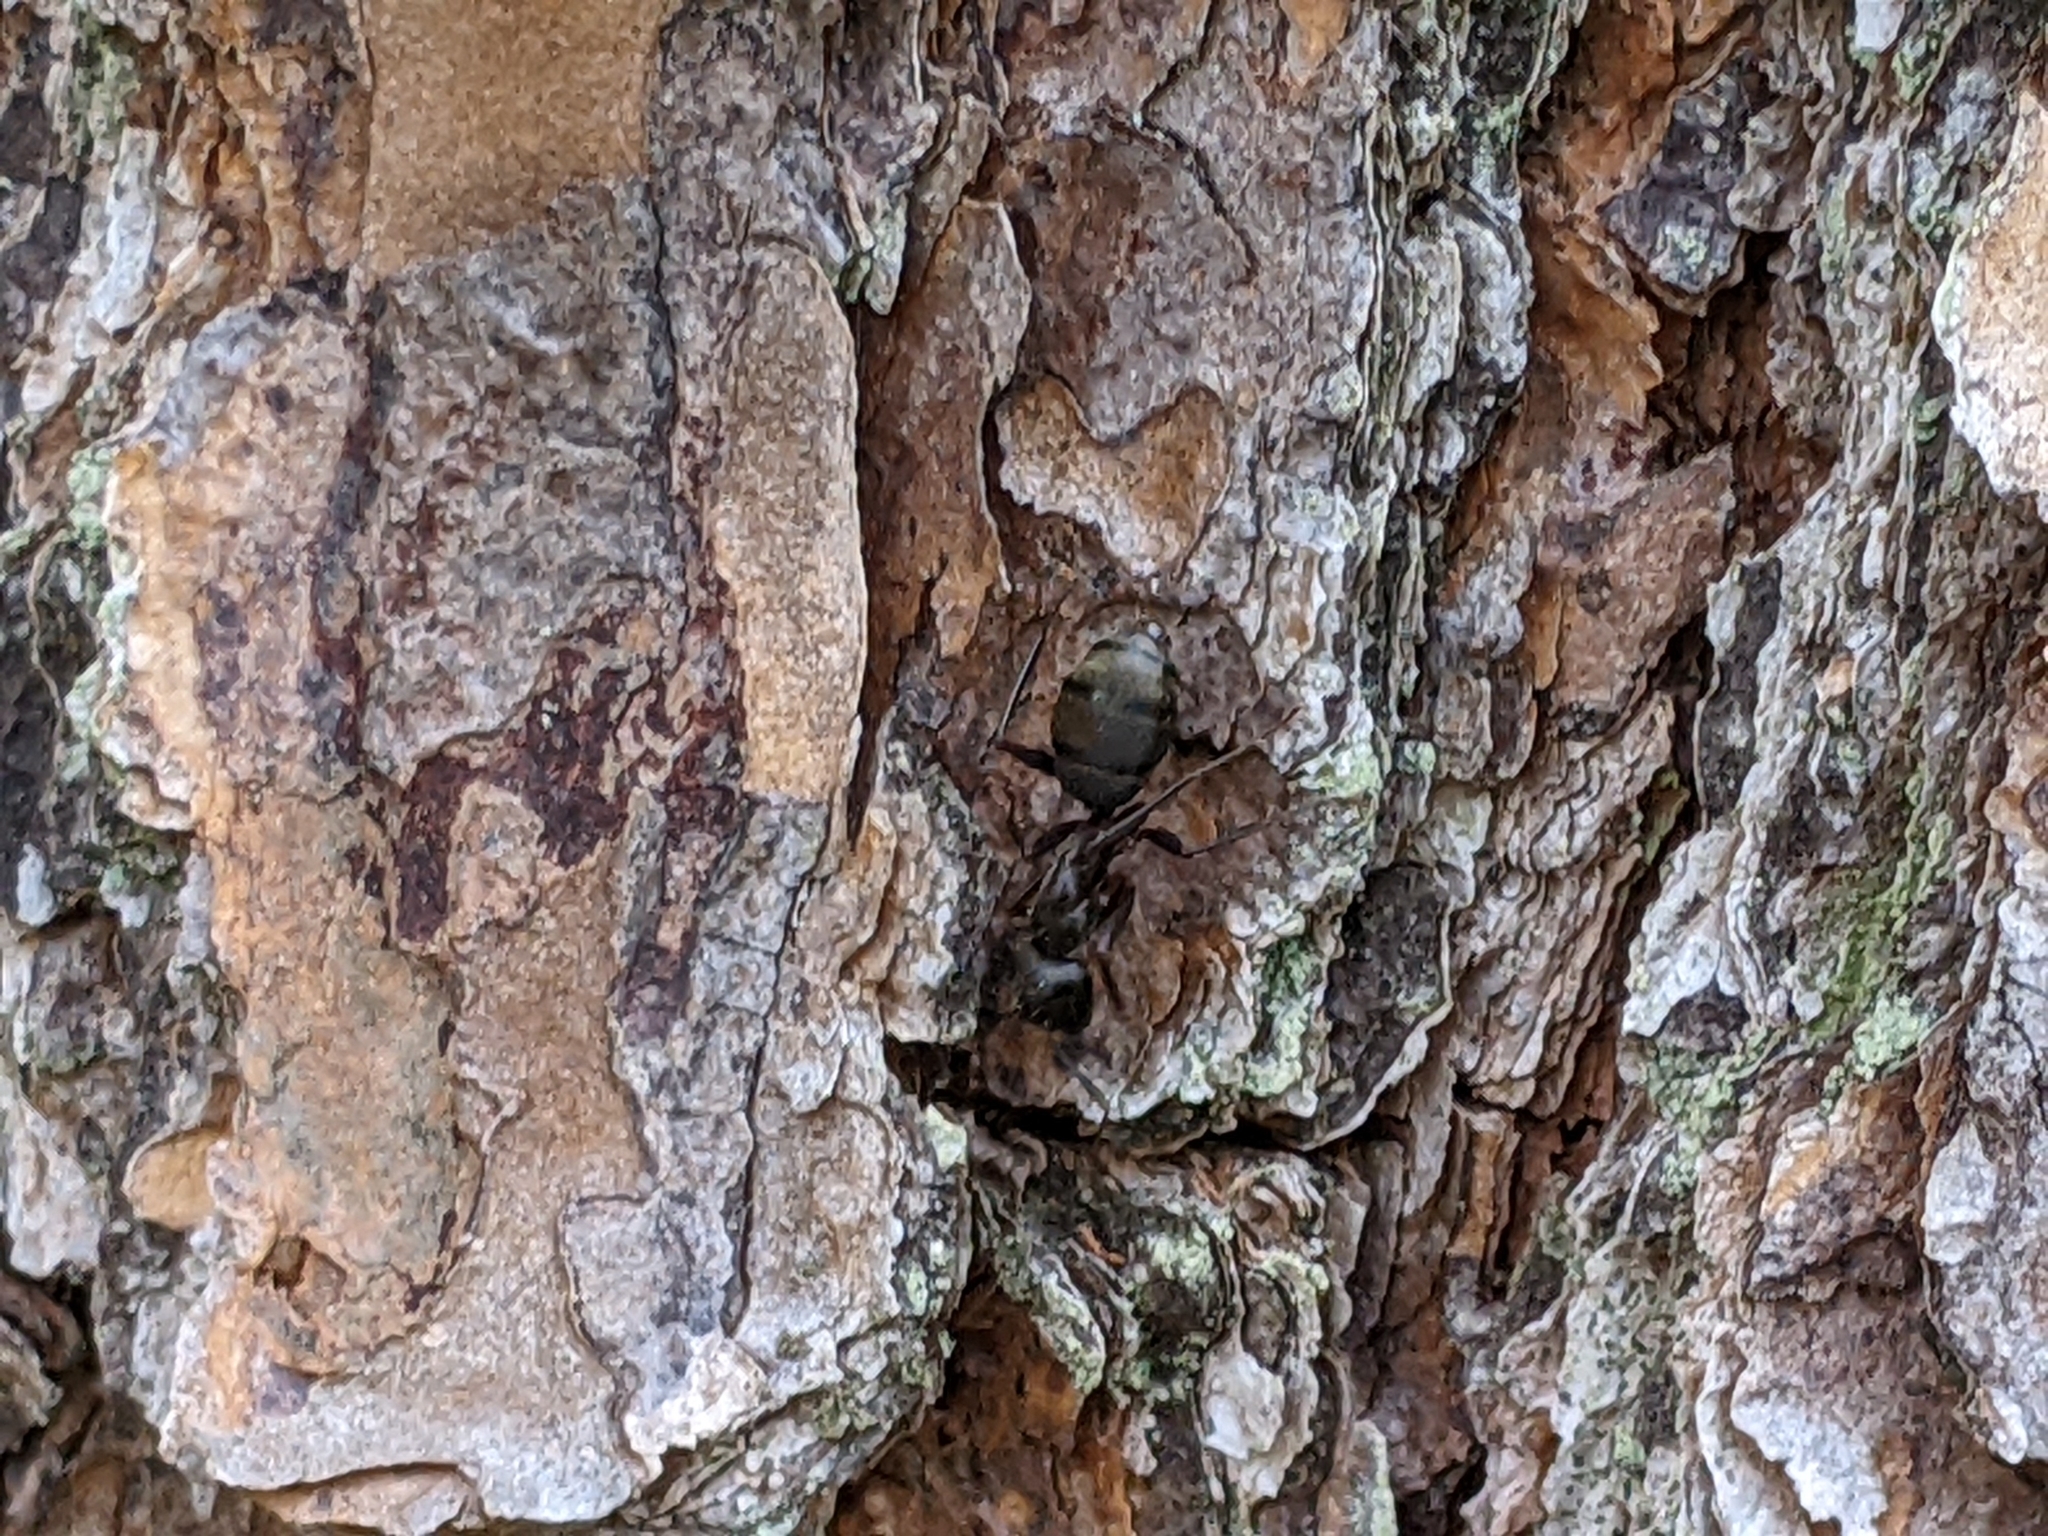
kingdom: Animalia
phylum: Arthropoda
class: Insecta
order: Hymenoptera
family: Formicidae
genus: Camponotus
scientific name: Camponotus pennsylvanicus
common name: Black carpenter ant
